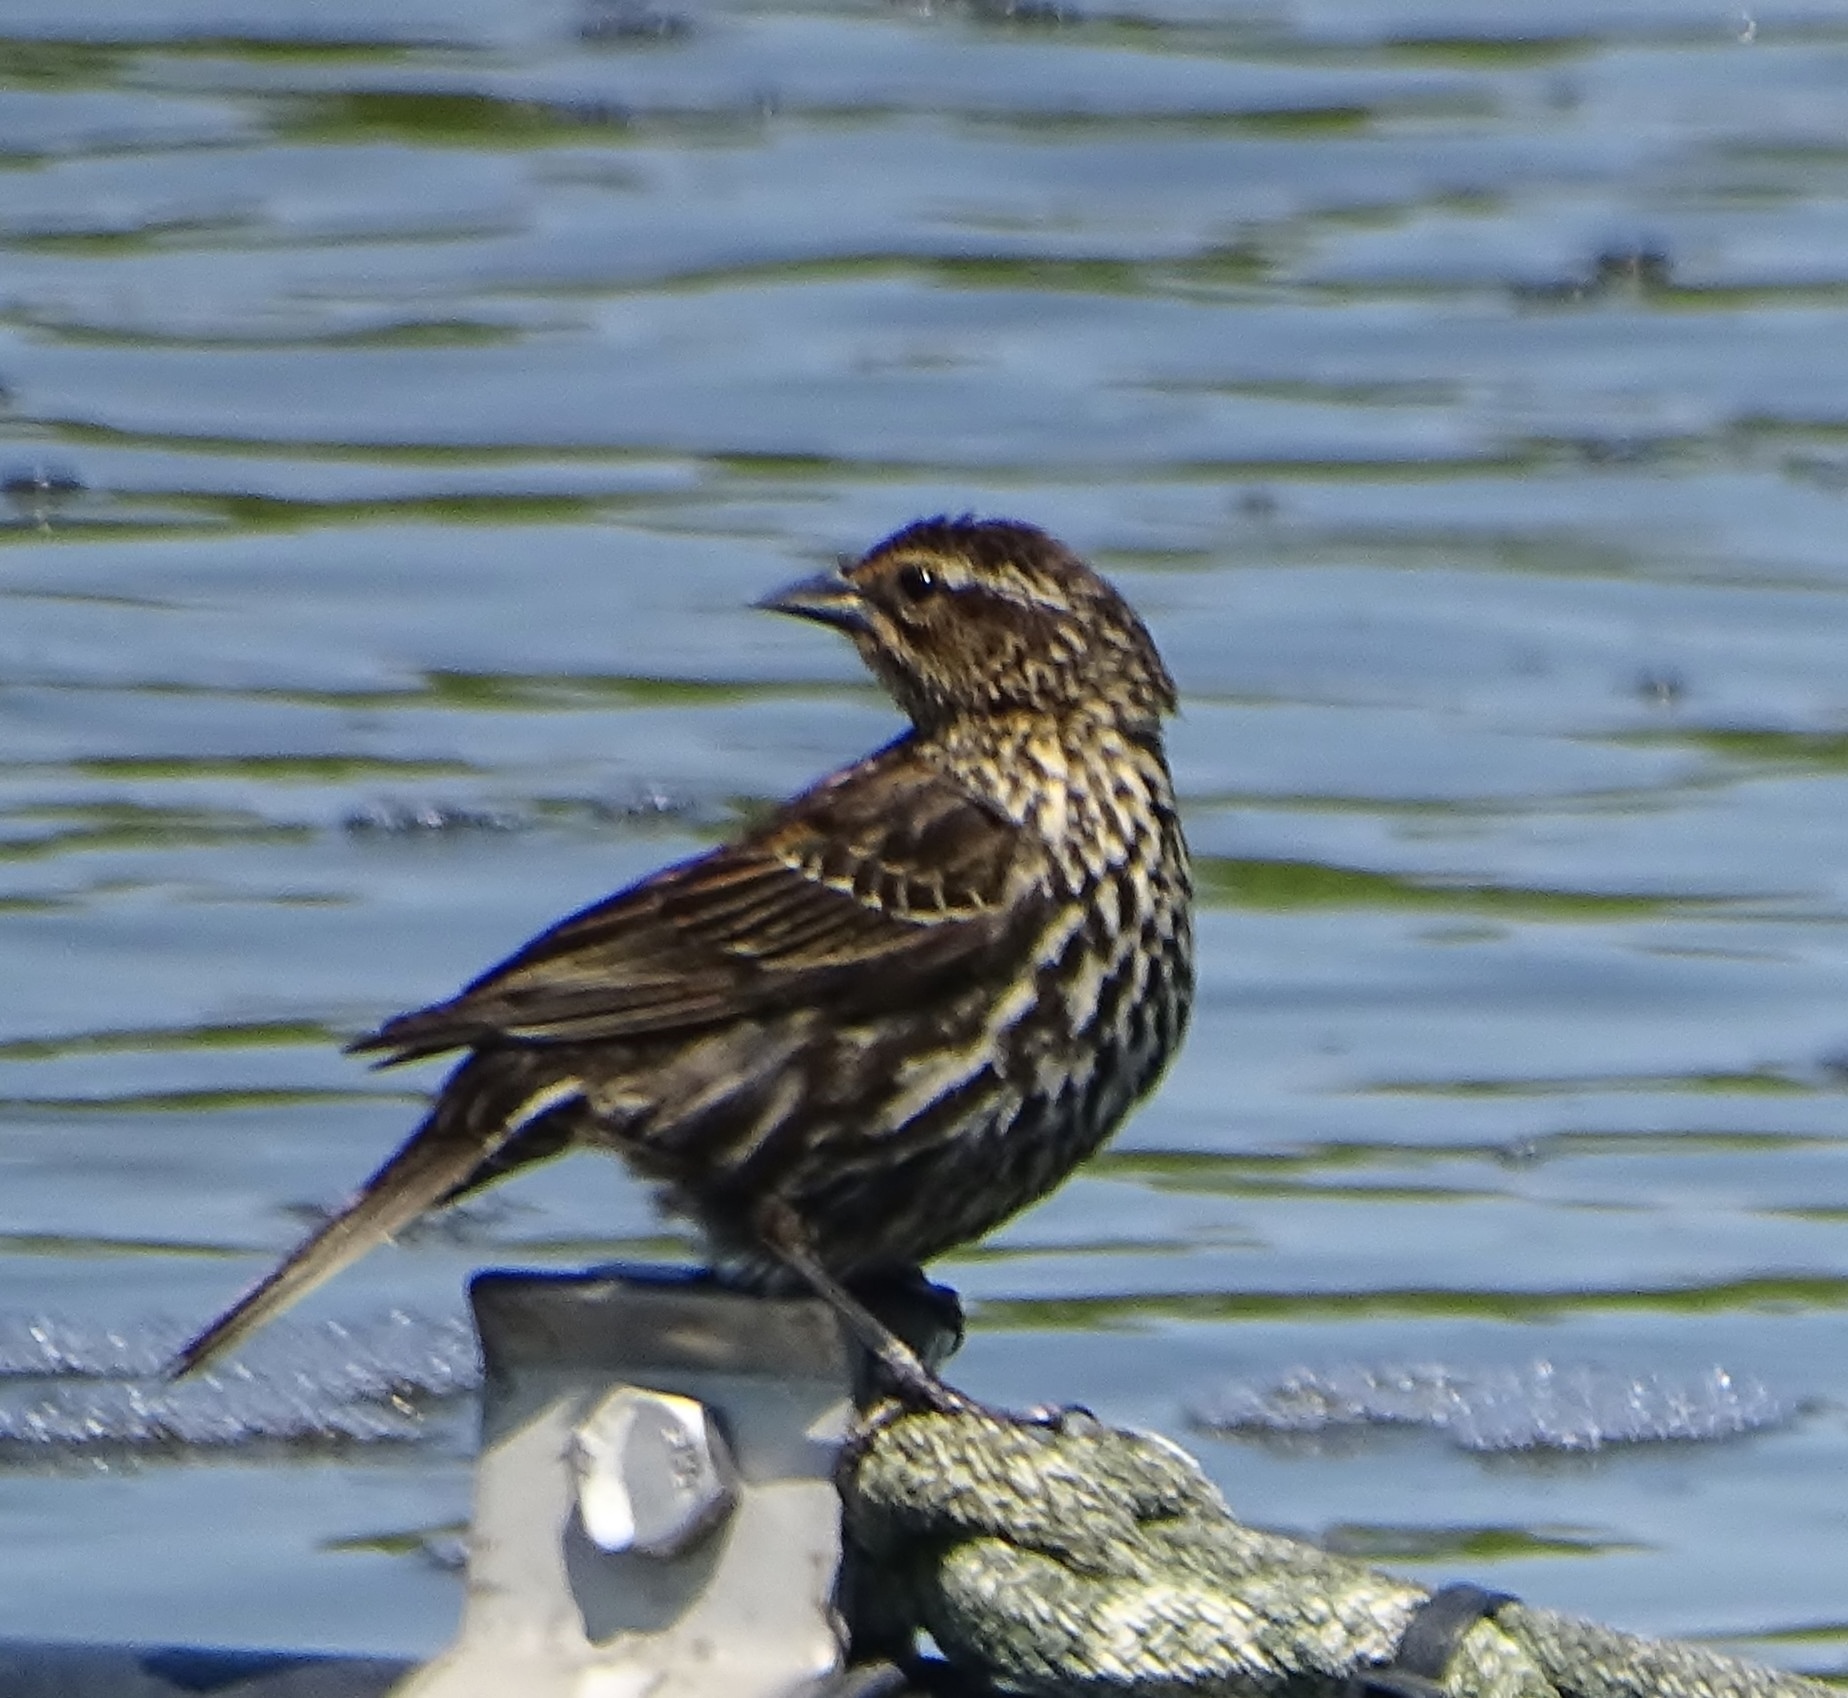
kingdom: Animalia
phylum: Chordata
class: Aves
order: Passeriformes
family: Icteridae
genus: Agelaius
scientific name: Agelaius phoeniceus
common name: Red-winged blackbird
